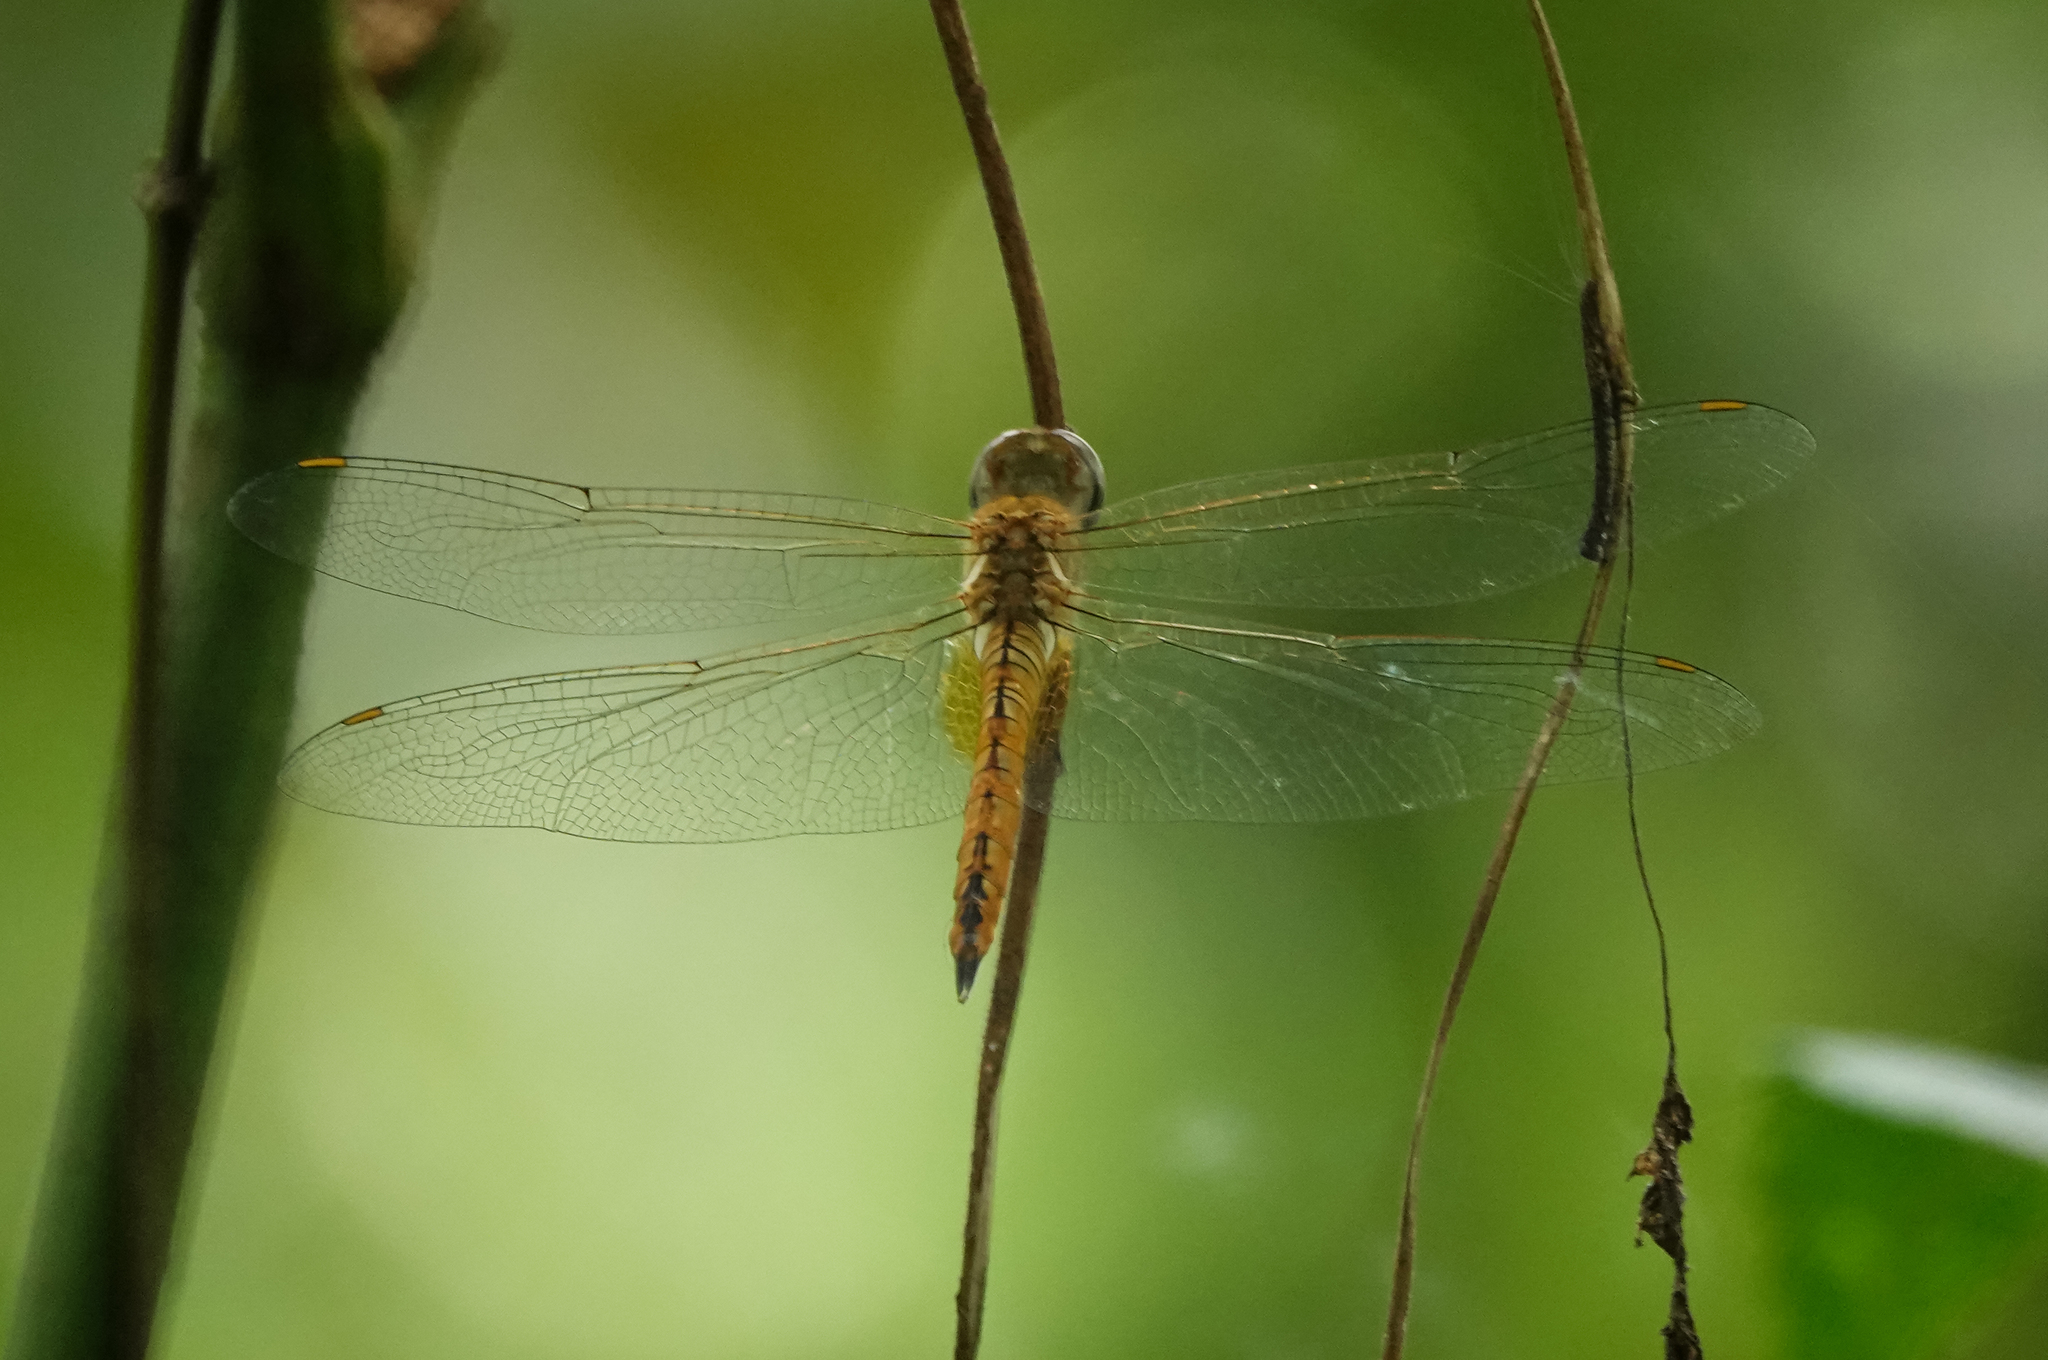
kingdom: Animalia
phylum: Arthropoda
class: Insecta
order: Odonata
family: Libellulidae
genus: Pantala
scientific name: Pantala flavescens
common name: Wandering glider
